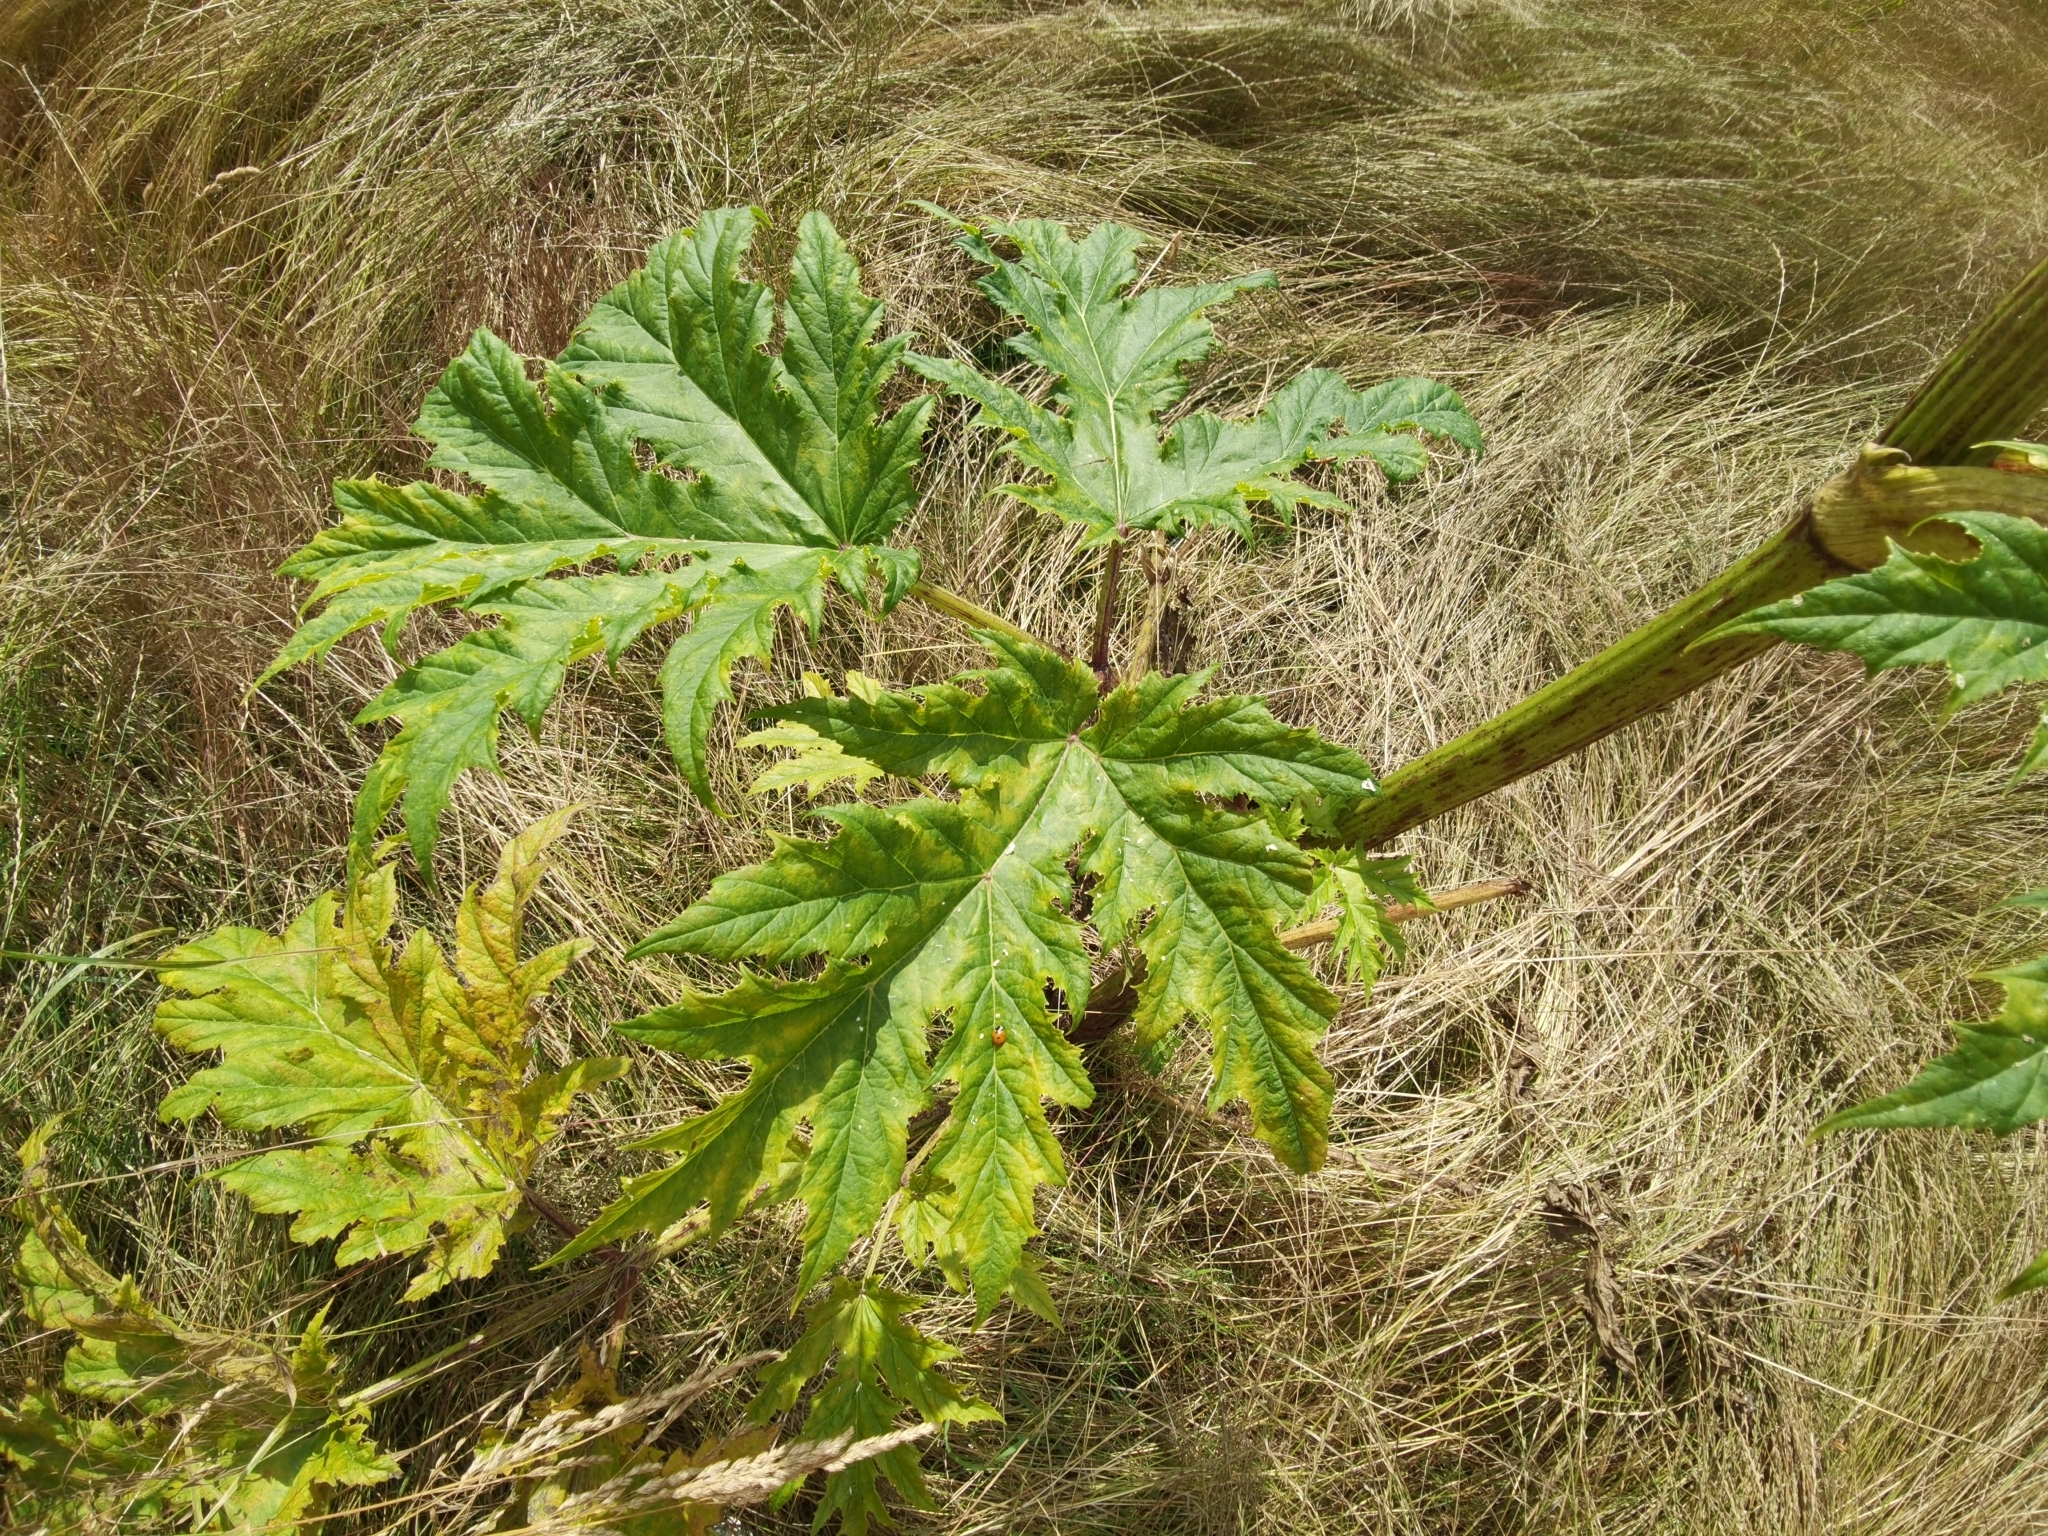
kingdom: Plantae
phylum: Tracheophyta
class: Magnoliopsida
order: Apiales
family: Apiaceae
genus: Heracleum
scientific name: Heracleum mantegazzianum
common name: Giant hogweed
